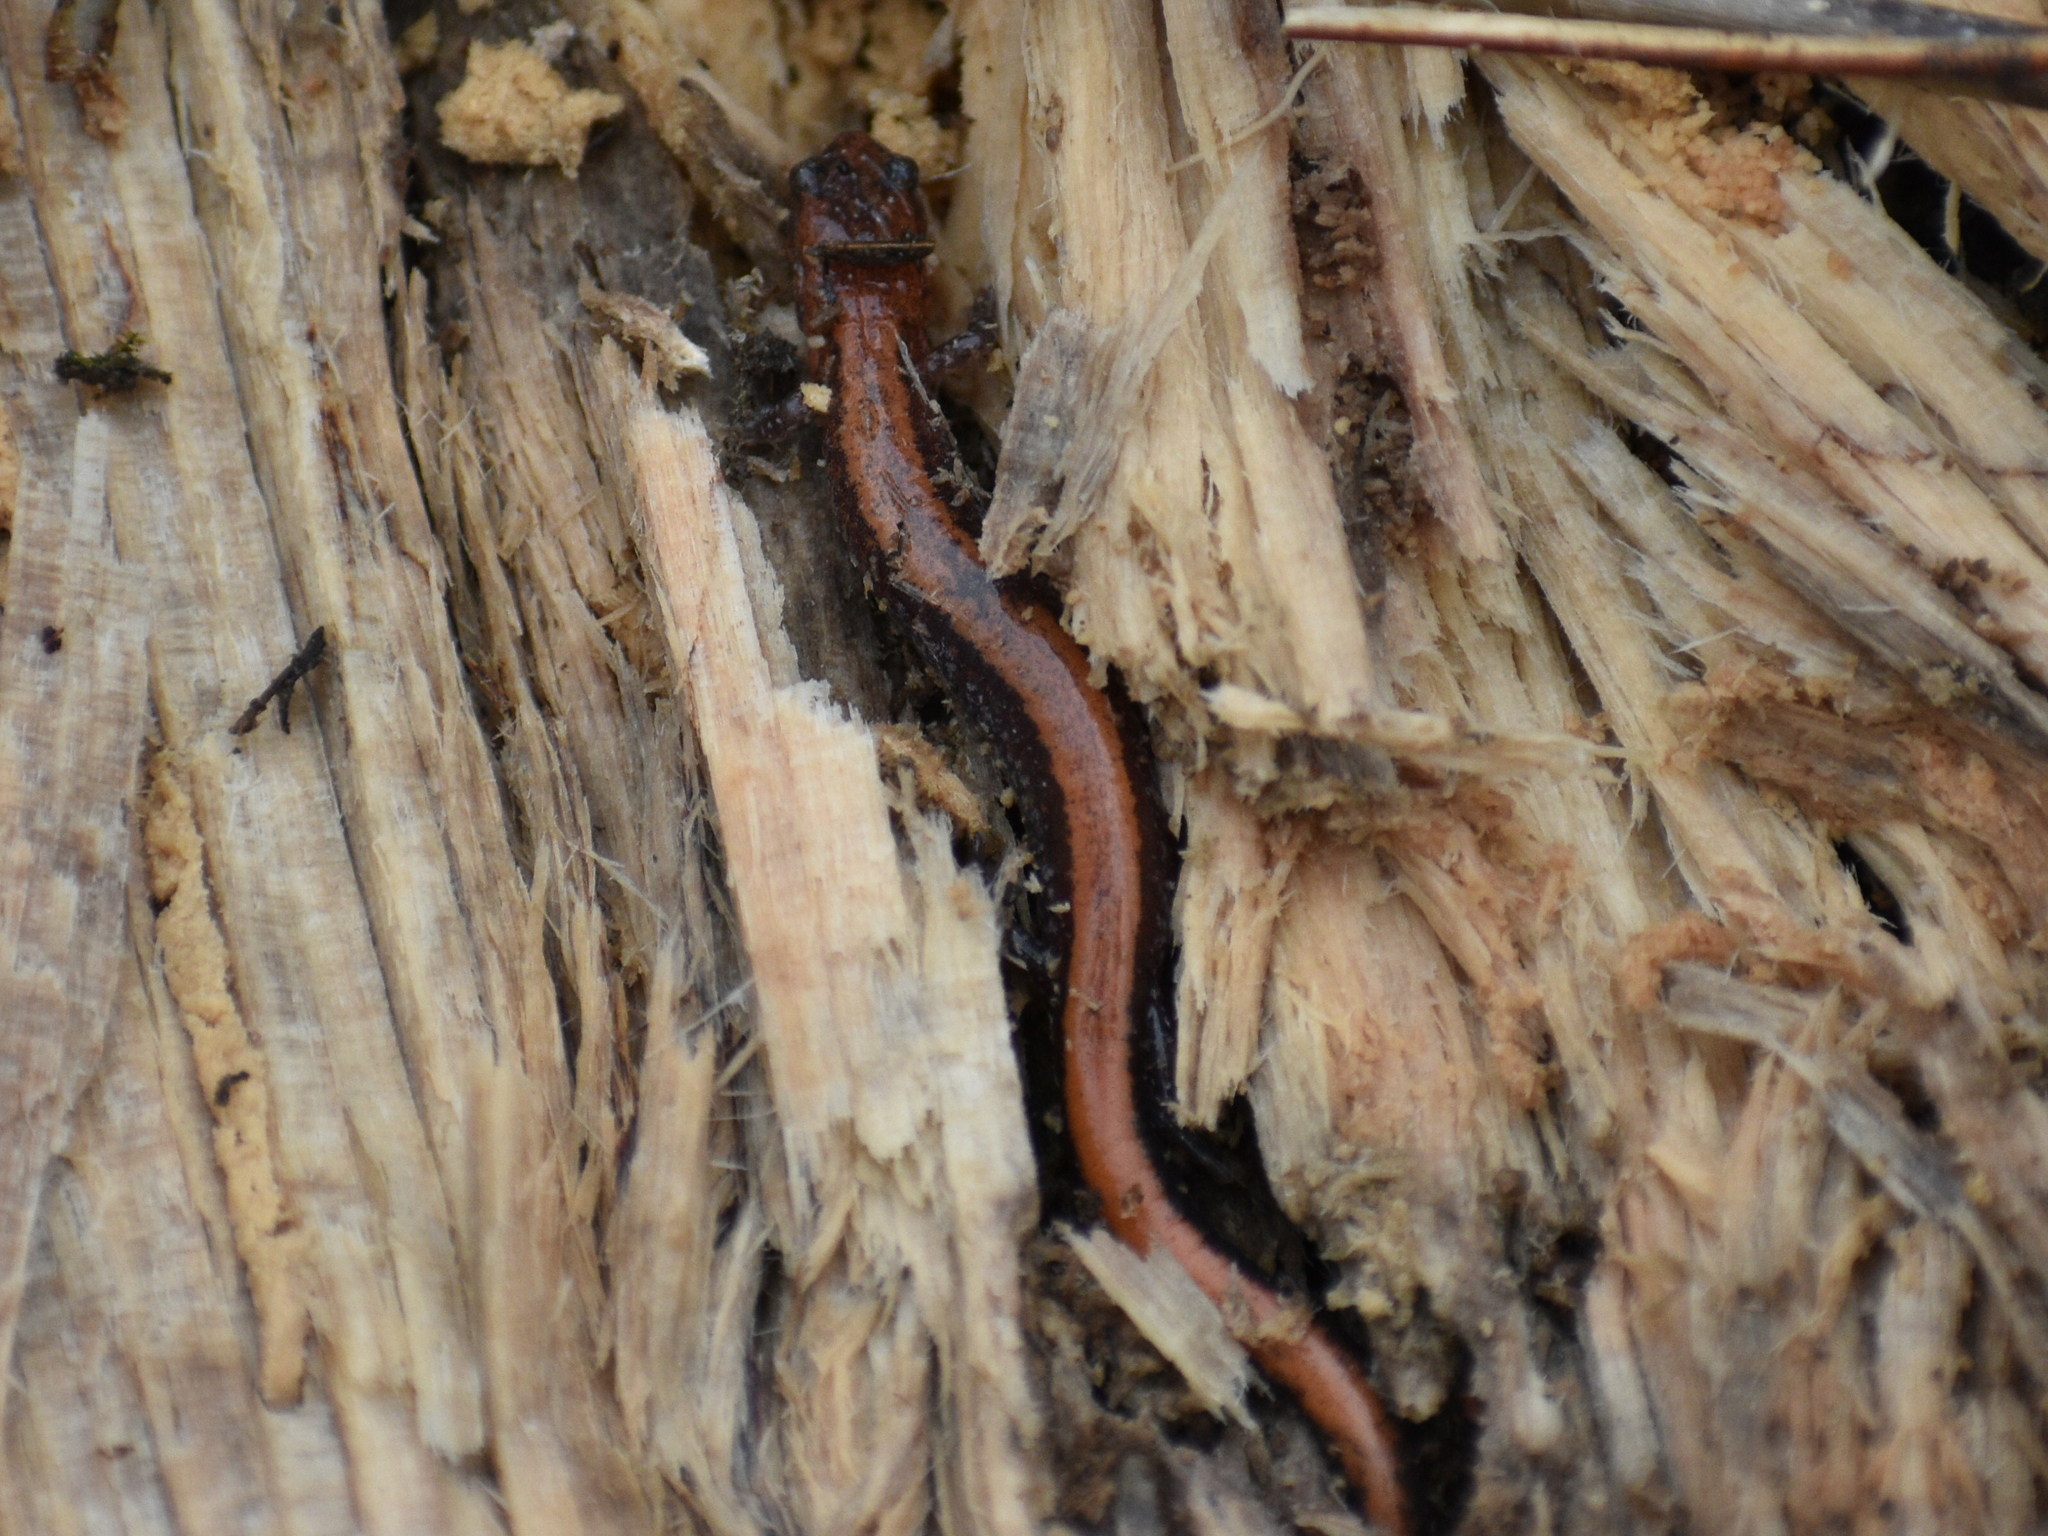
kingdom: Animalia
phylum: Chordata
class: Amphibia
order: Caudata
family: Plethodontidae
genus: Plethodon
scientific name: Plethodon cinereus
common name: Redback salamander
